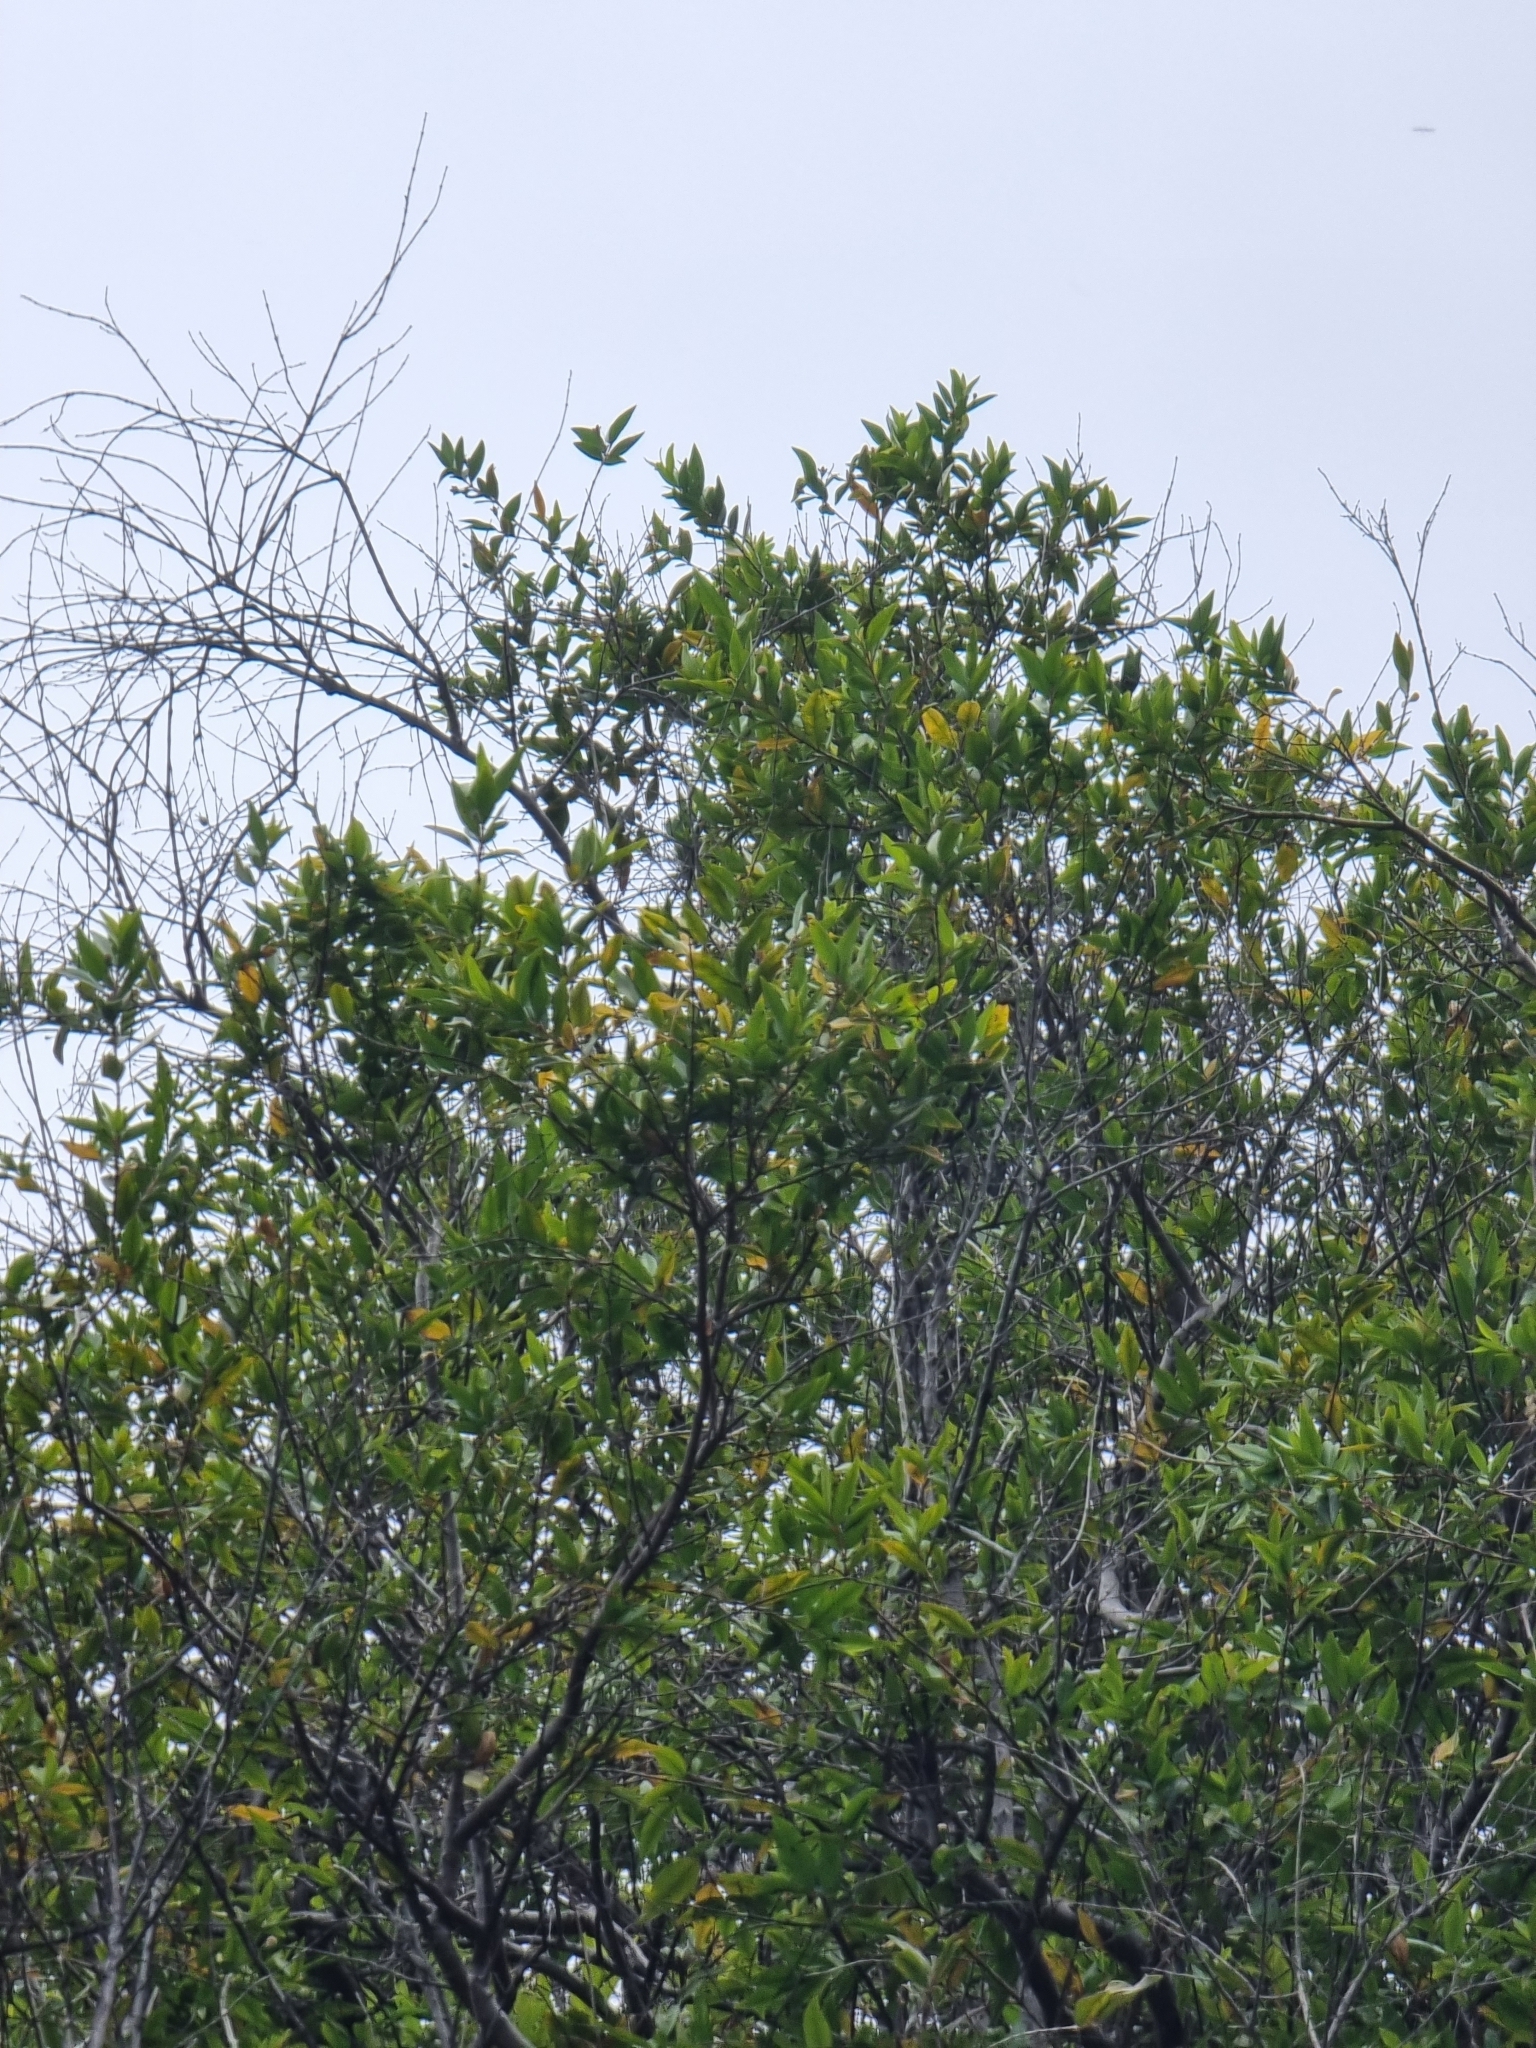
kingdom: Plantae
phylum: Tracheophyta
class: Magnoliopsida
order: Myrtales
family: Myrtaceae
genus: Myrtus
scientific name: Myrtus communis
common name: Myrtle
